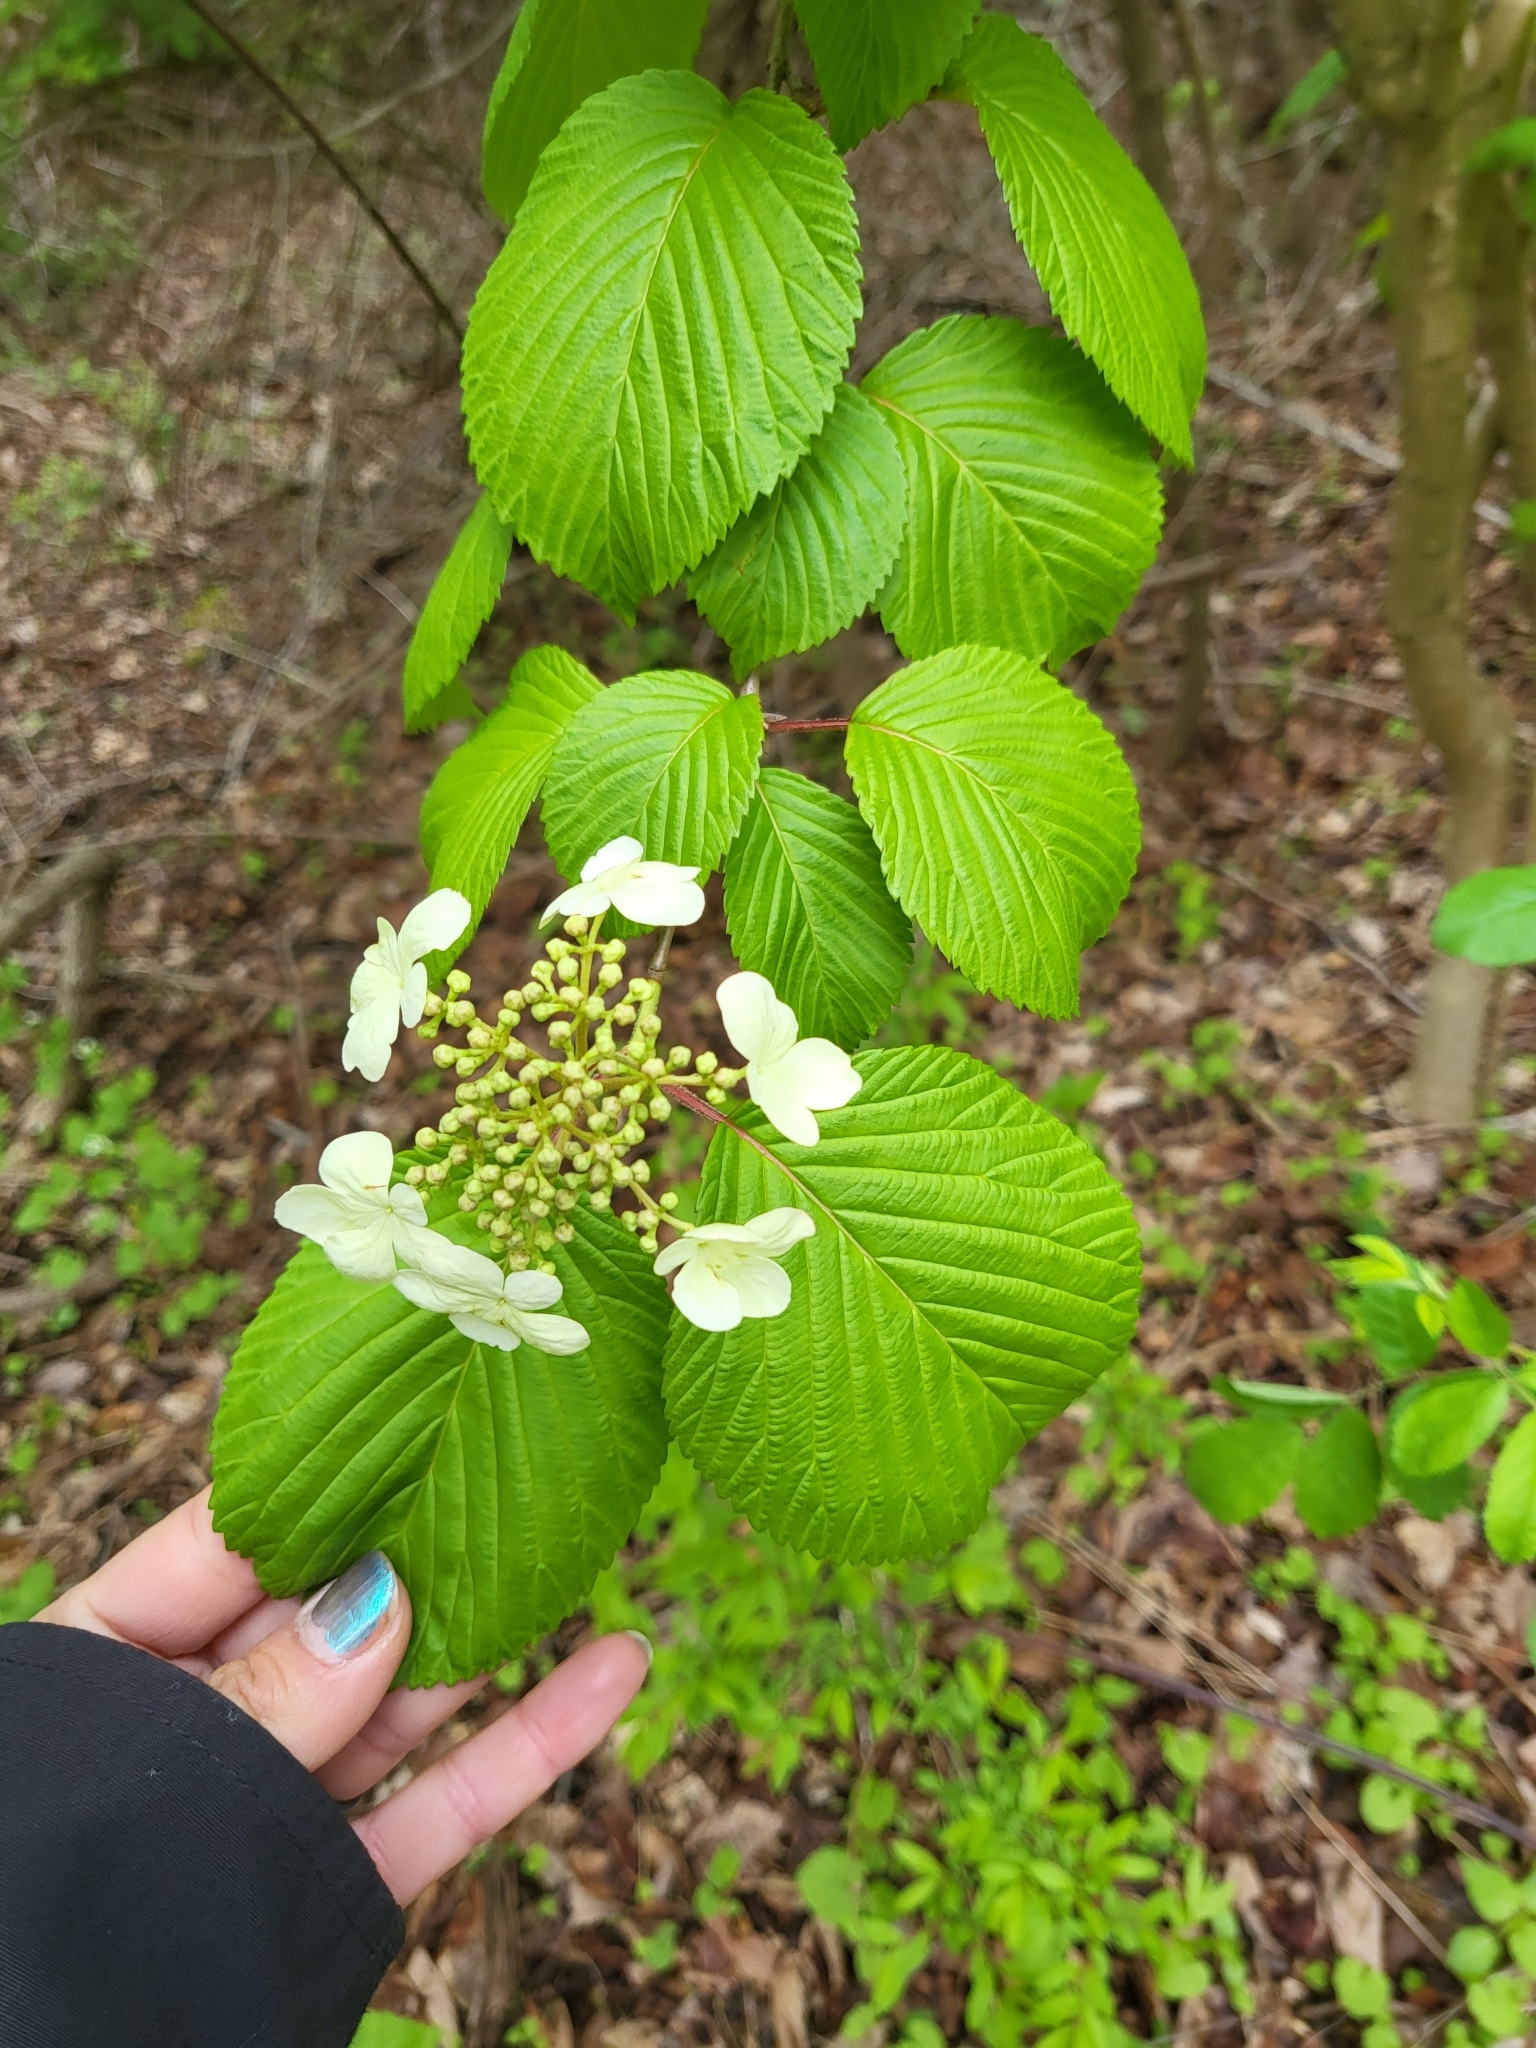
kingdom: Plantae
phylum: Tracheophyta
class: Magnoliopsida
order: Dipsacales
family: Viburnaceae
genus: Viburnum
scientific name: Viburnum plicatum
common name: Japanese snowball
